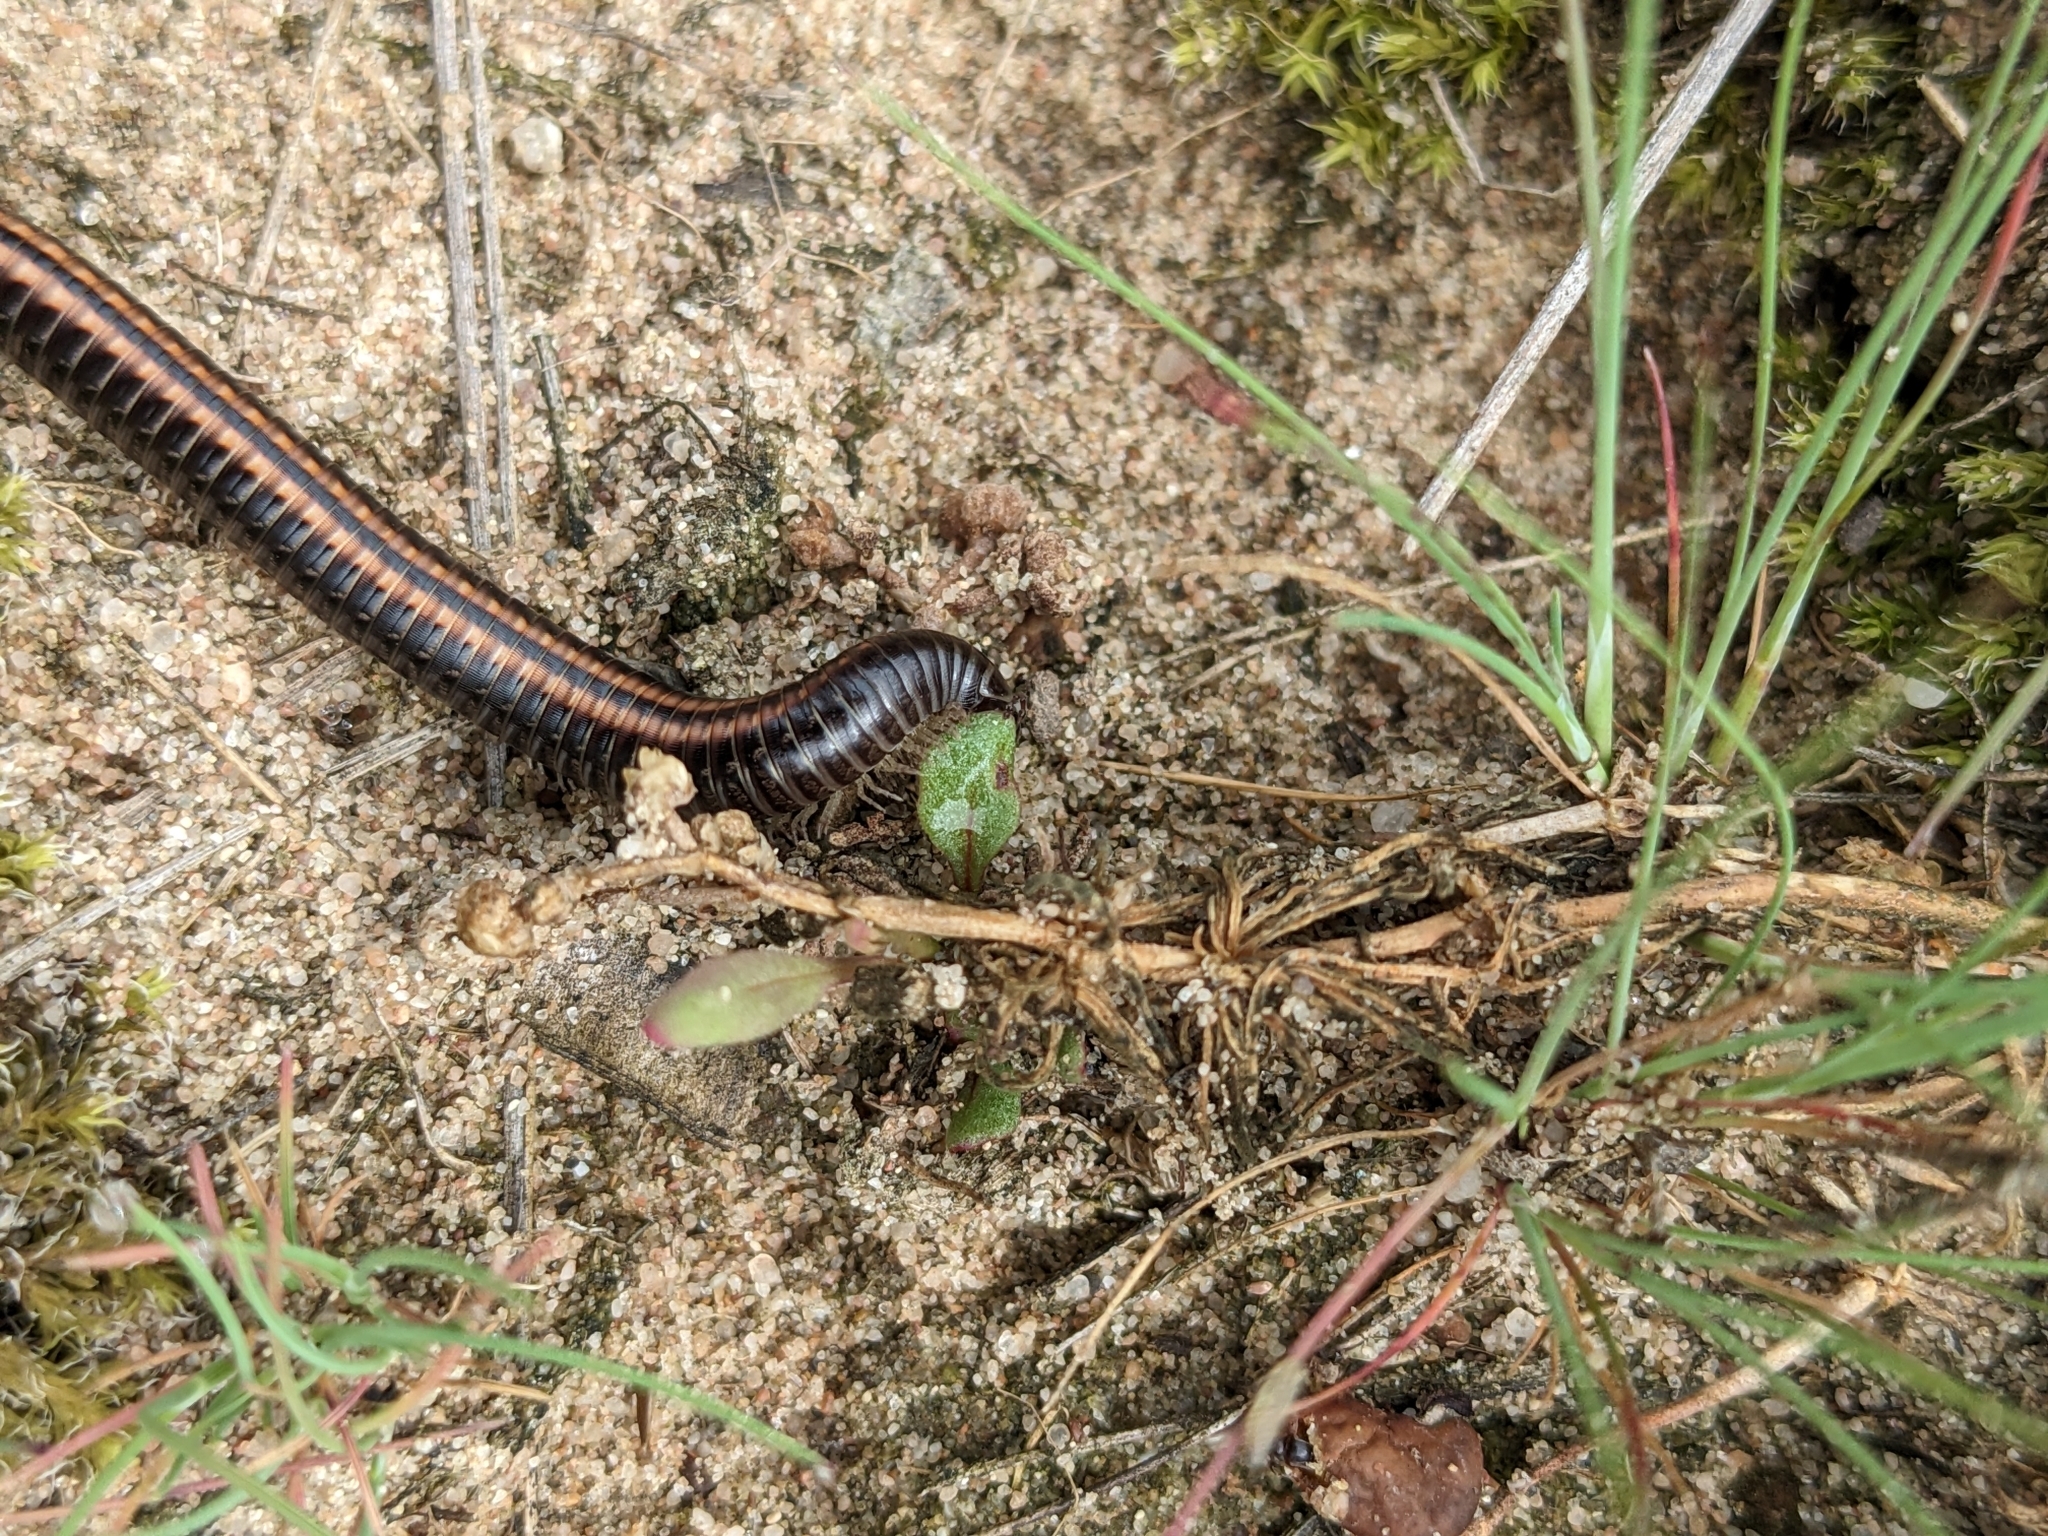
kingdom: Animalia
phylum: Arthropoda
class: Diplopoda
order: Julida
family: Julidae
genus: Ommatoiulus
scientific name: Ommatoiulus sabulosus
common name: Striped millipede
